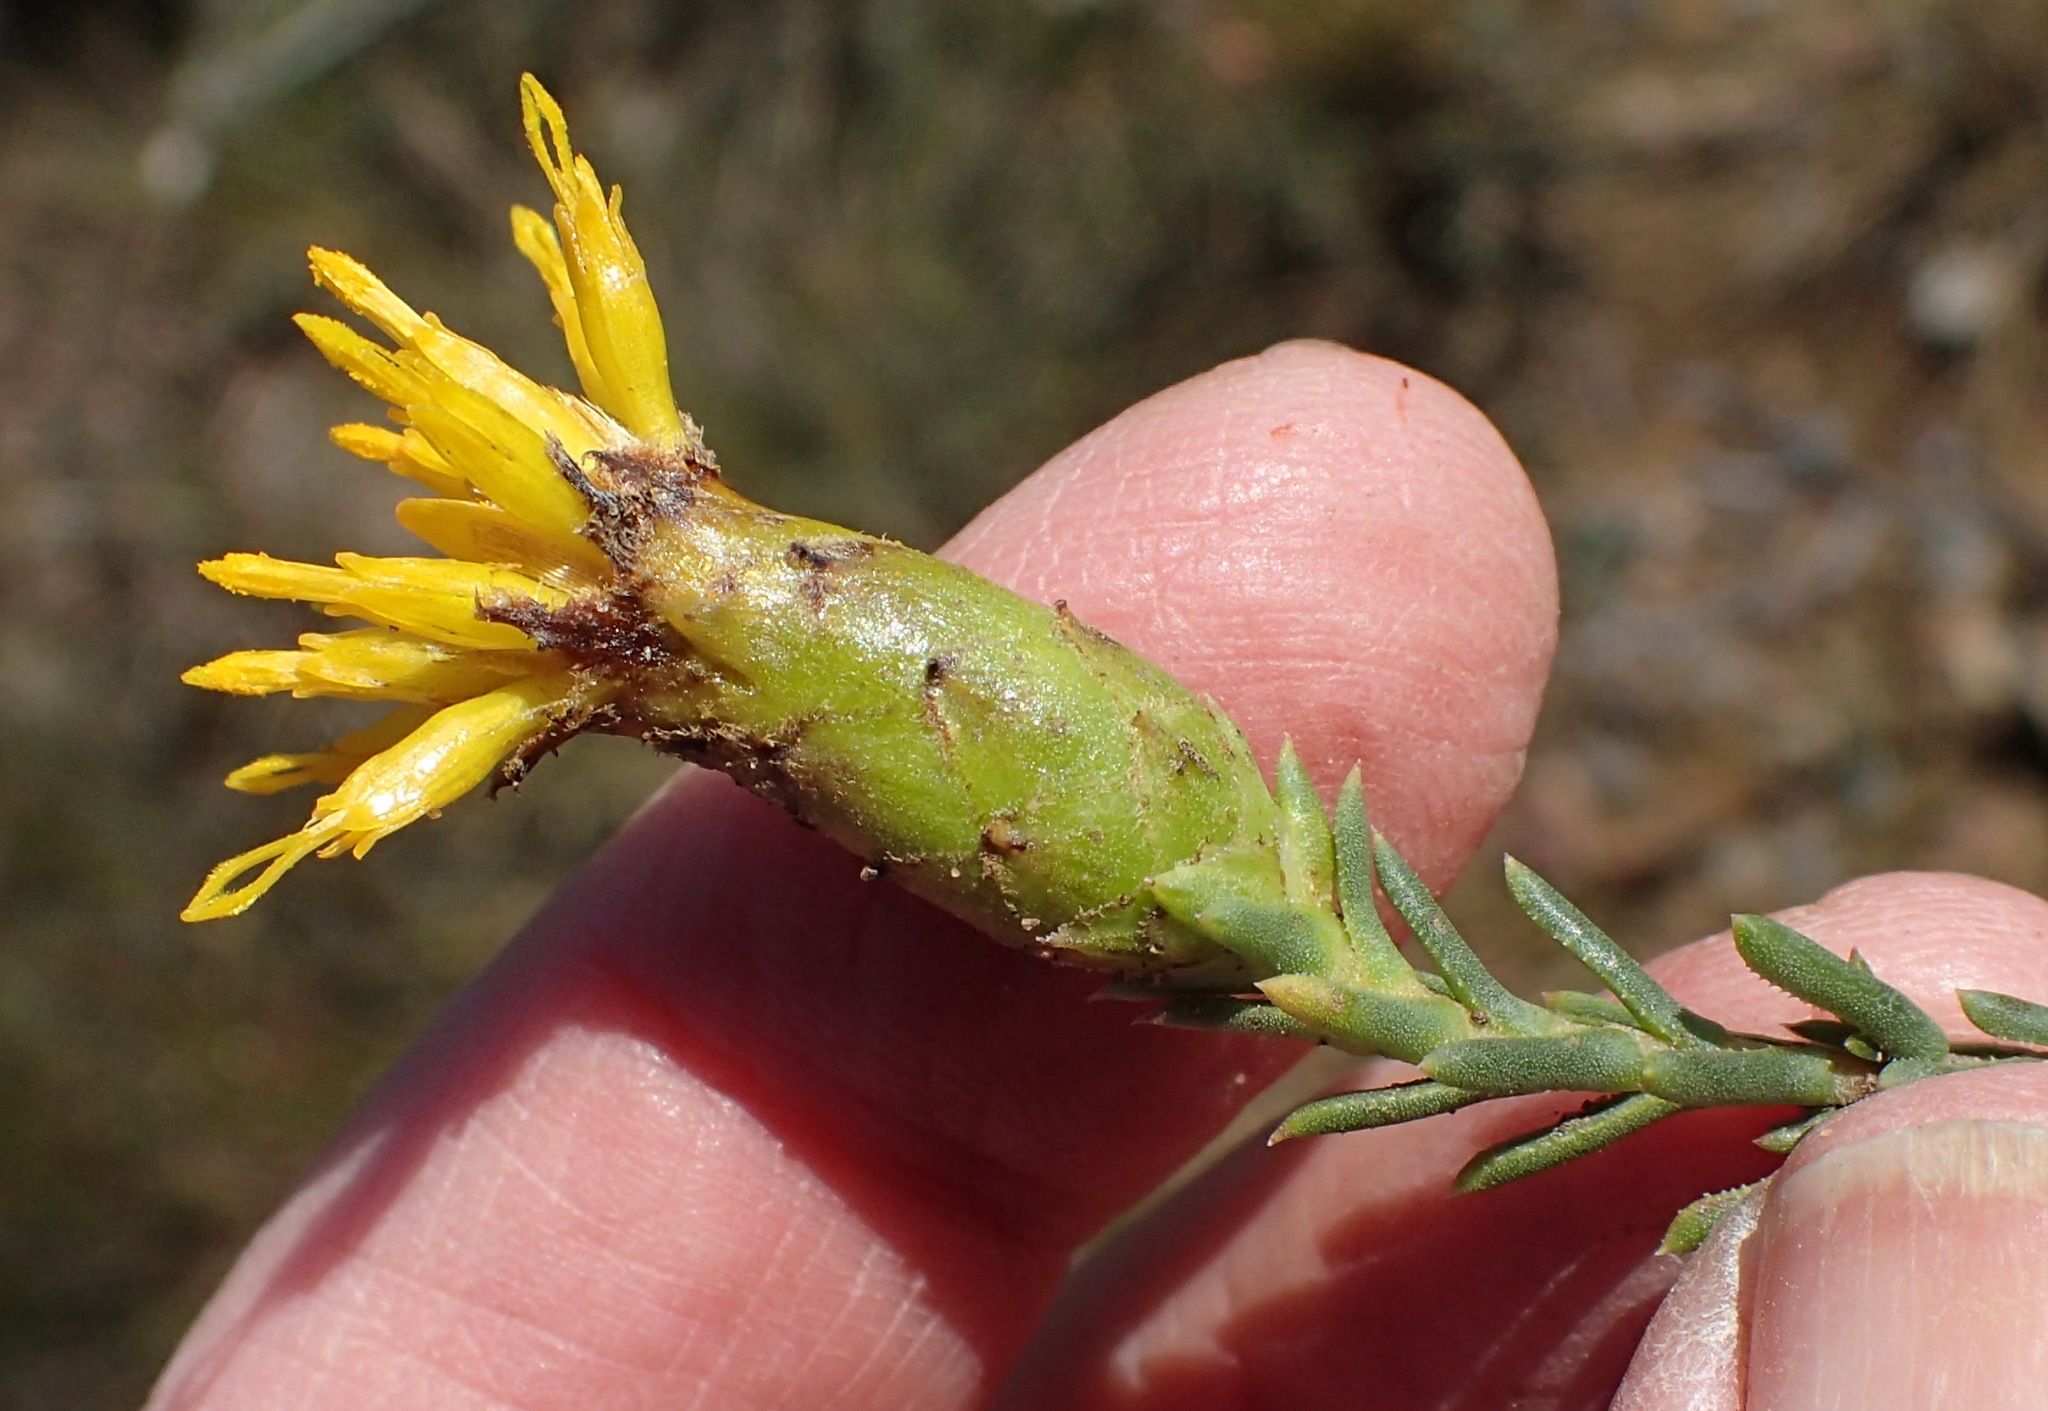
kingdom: Plantae
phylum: Tracheophyta
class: Magnoliopsida
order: Asterales
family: Asteraceae
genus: Pteronia
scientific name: Pteronia elongata
